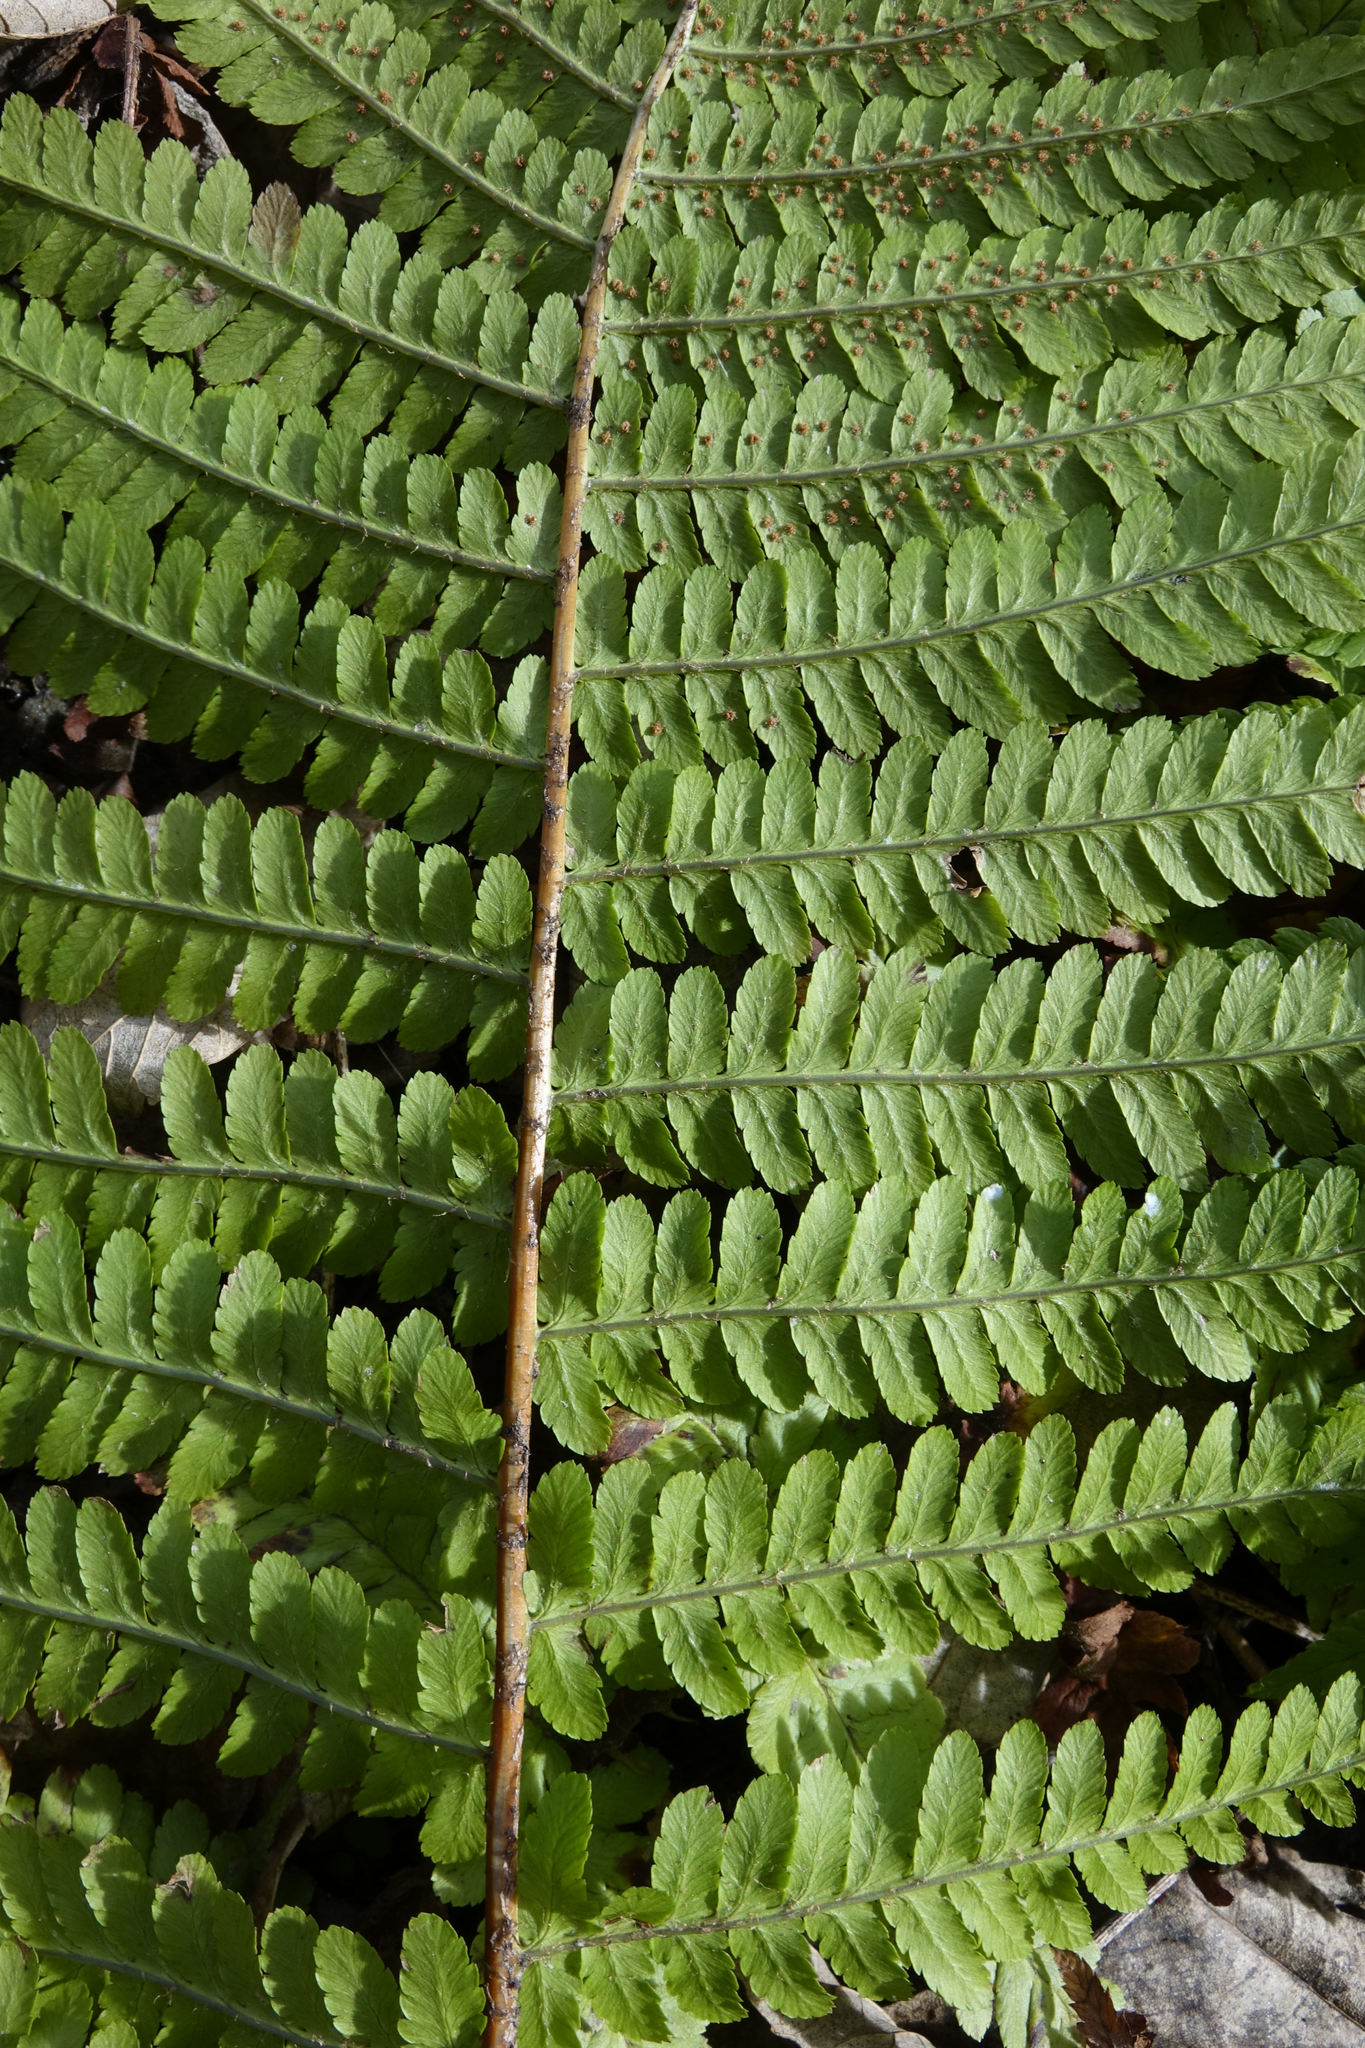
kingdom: Plantae
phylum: Tracheophyta
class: Polypodiopsida
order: Polypodiales
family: Dryopteridaceae
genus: Dryopteris
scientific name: Dryopteris filix-mas
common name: Male fern
